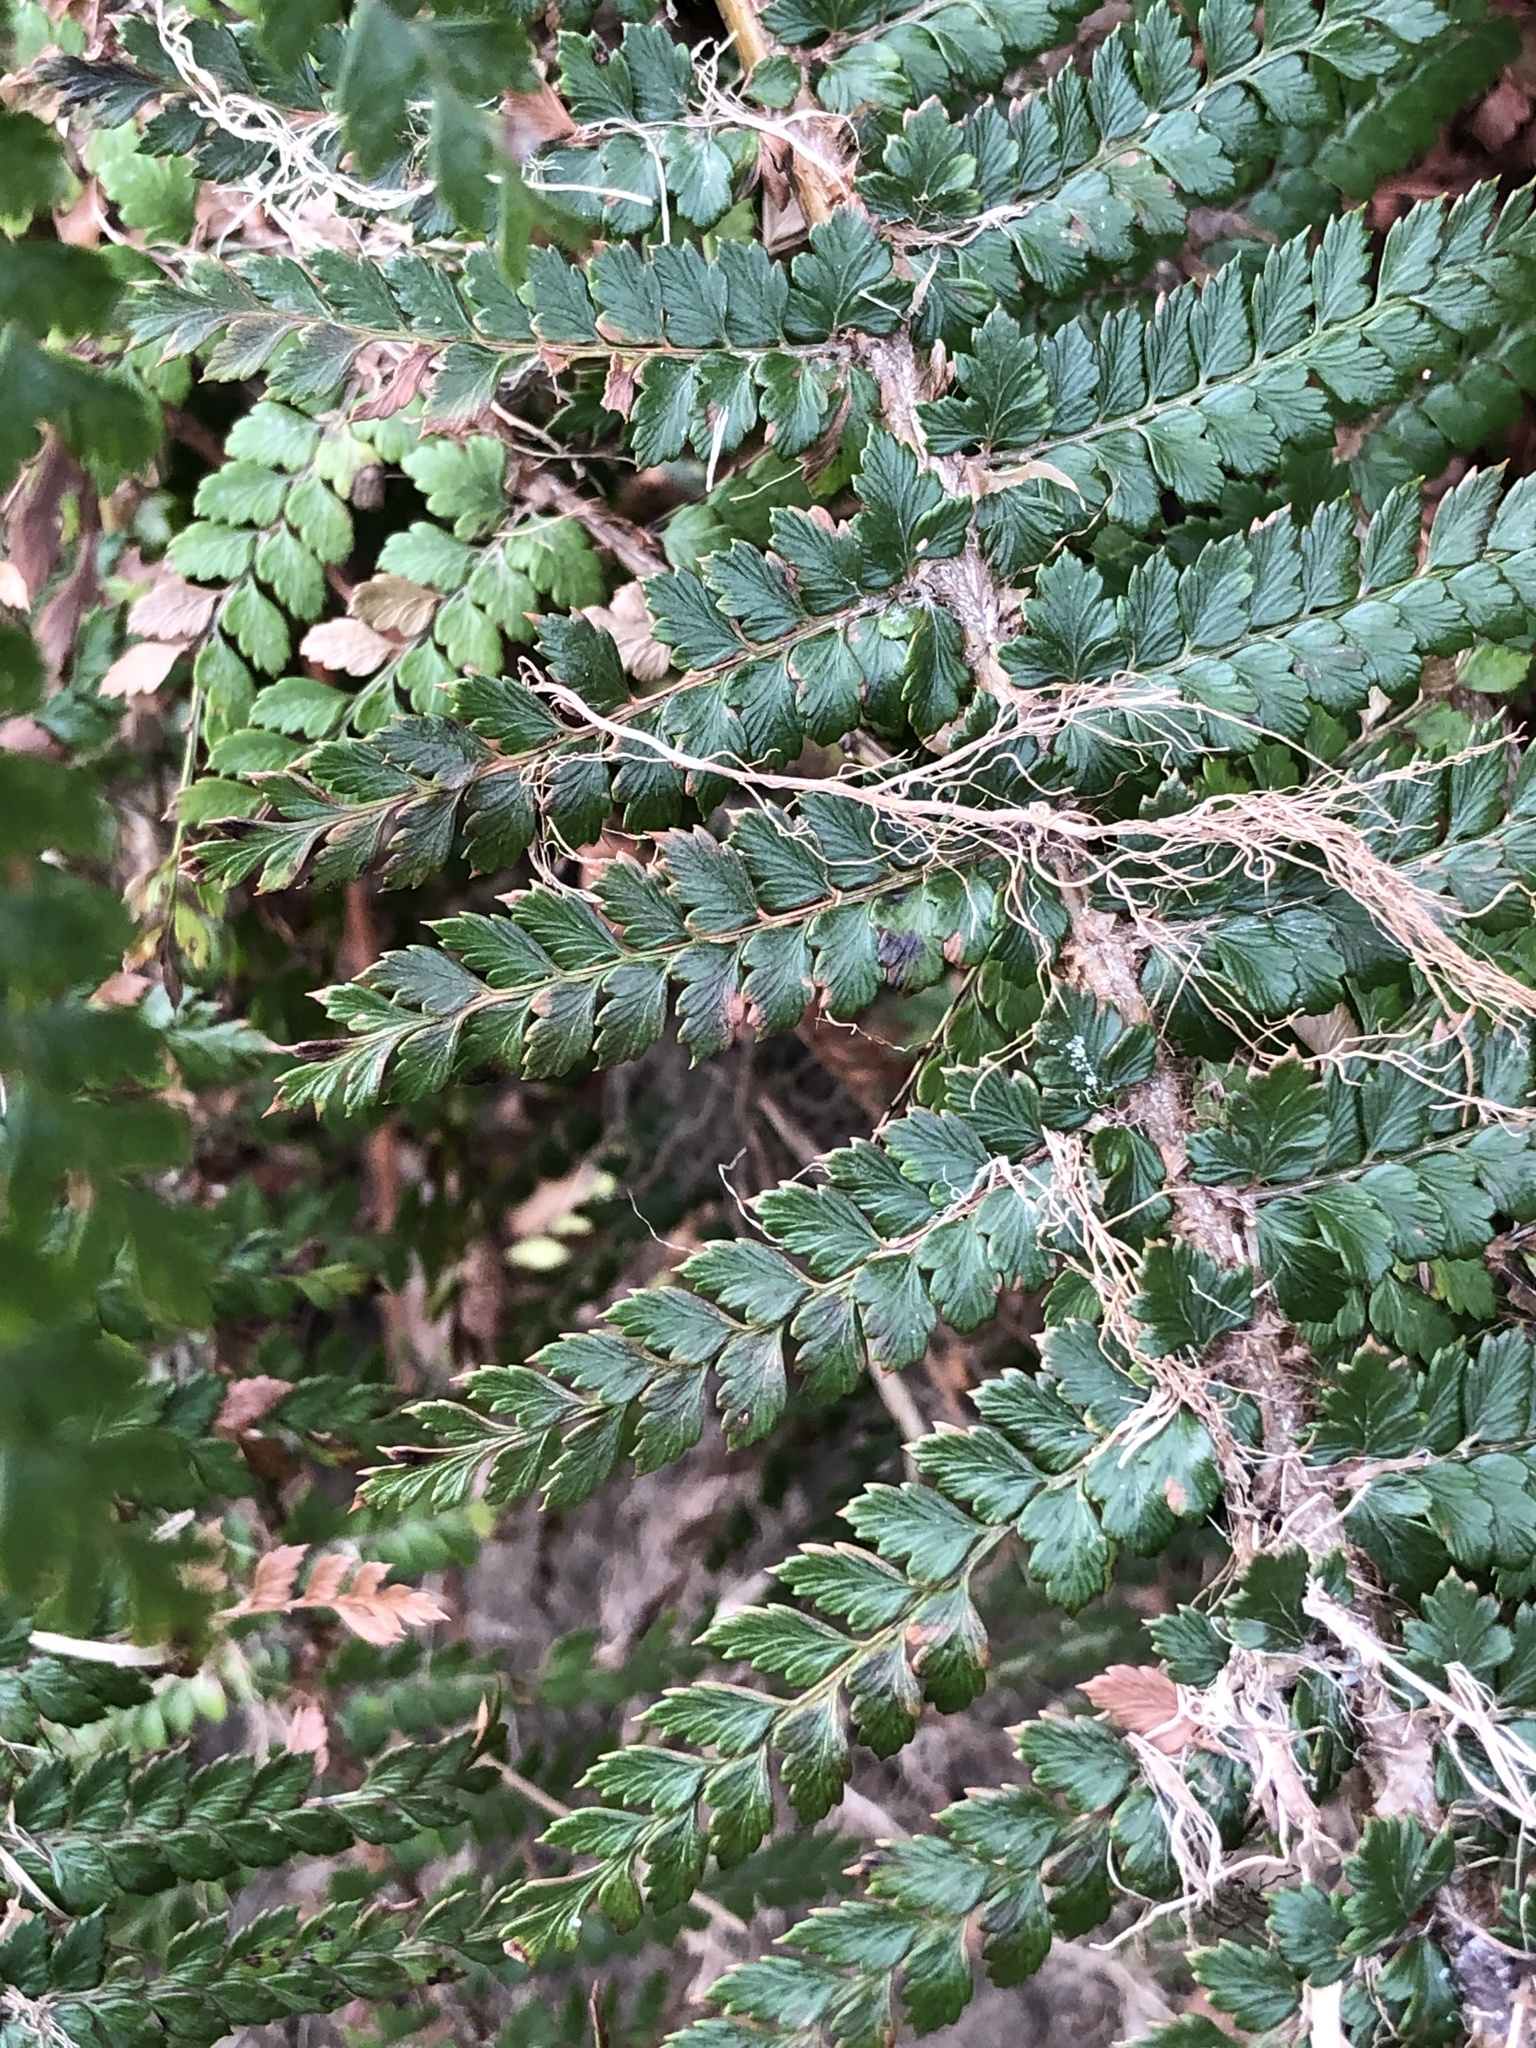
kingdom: Plantae
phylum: Tracheophyta
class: Polypodiopsida
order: Polypodiales
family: Dryopteridaceae
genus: Polystichum
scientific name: Polystichum vestitum
